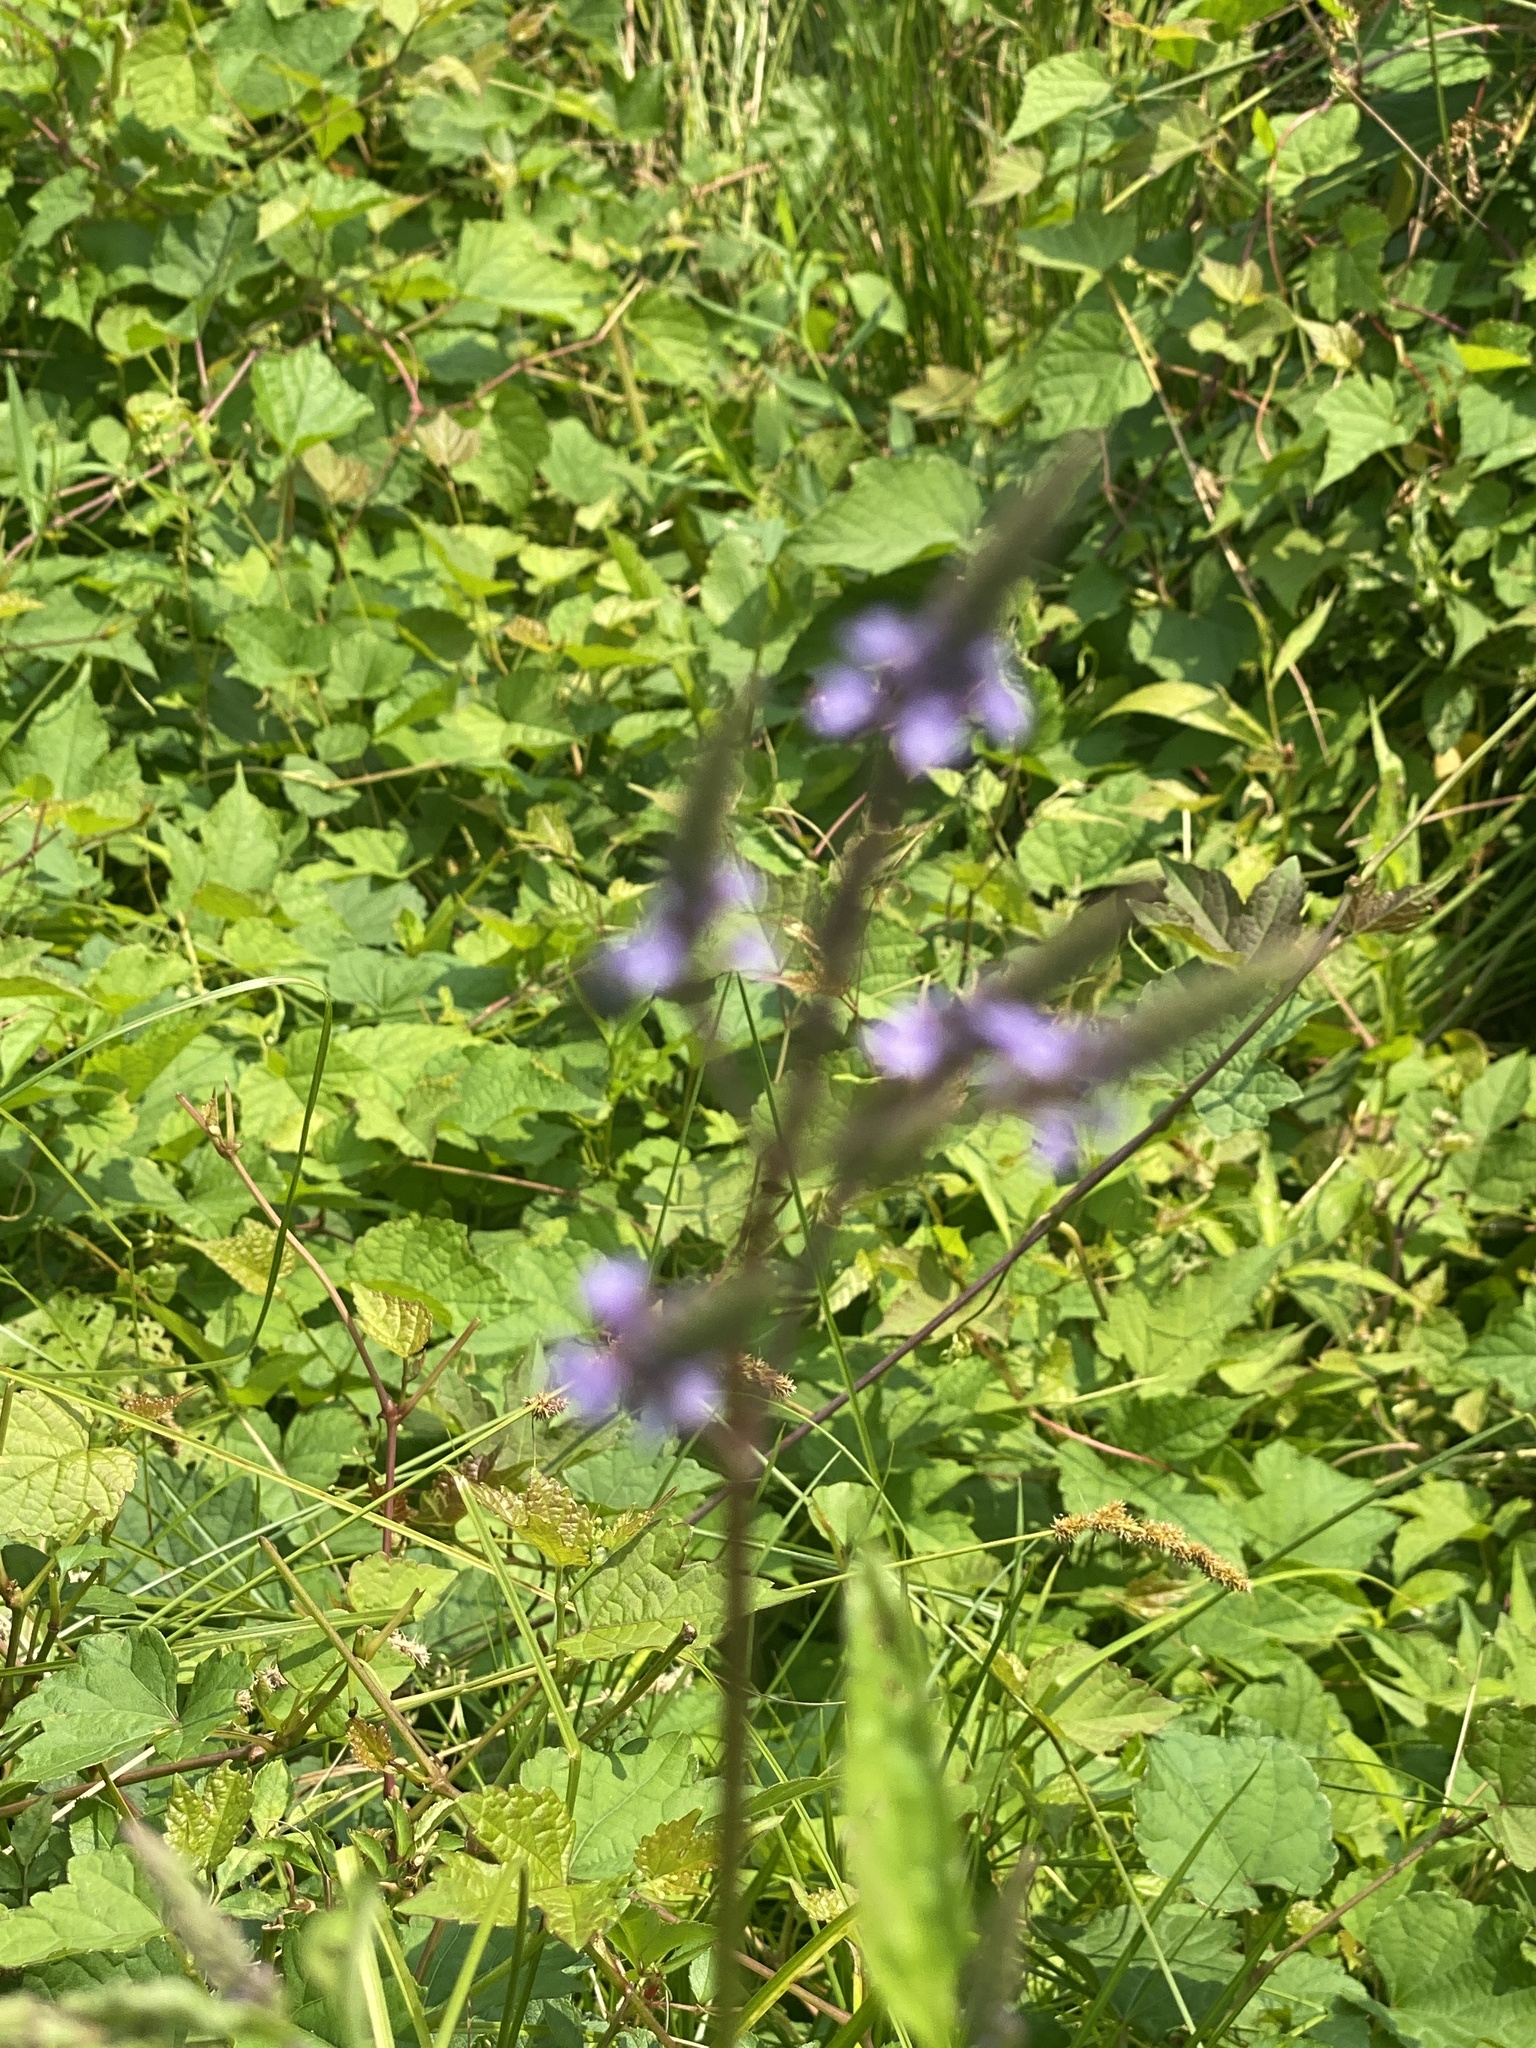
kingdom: Plantae
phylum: Tracheophyta
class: Magnoliopsida
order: Lamiales
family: Verbenaceae
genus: Verbena
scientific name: Verbena hastata
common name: American blue vervain
